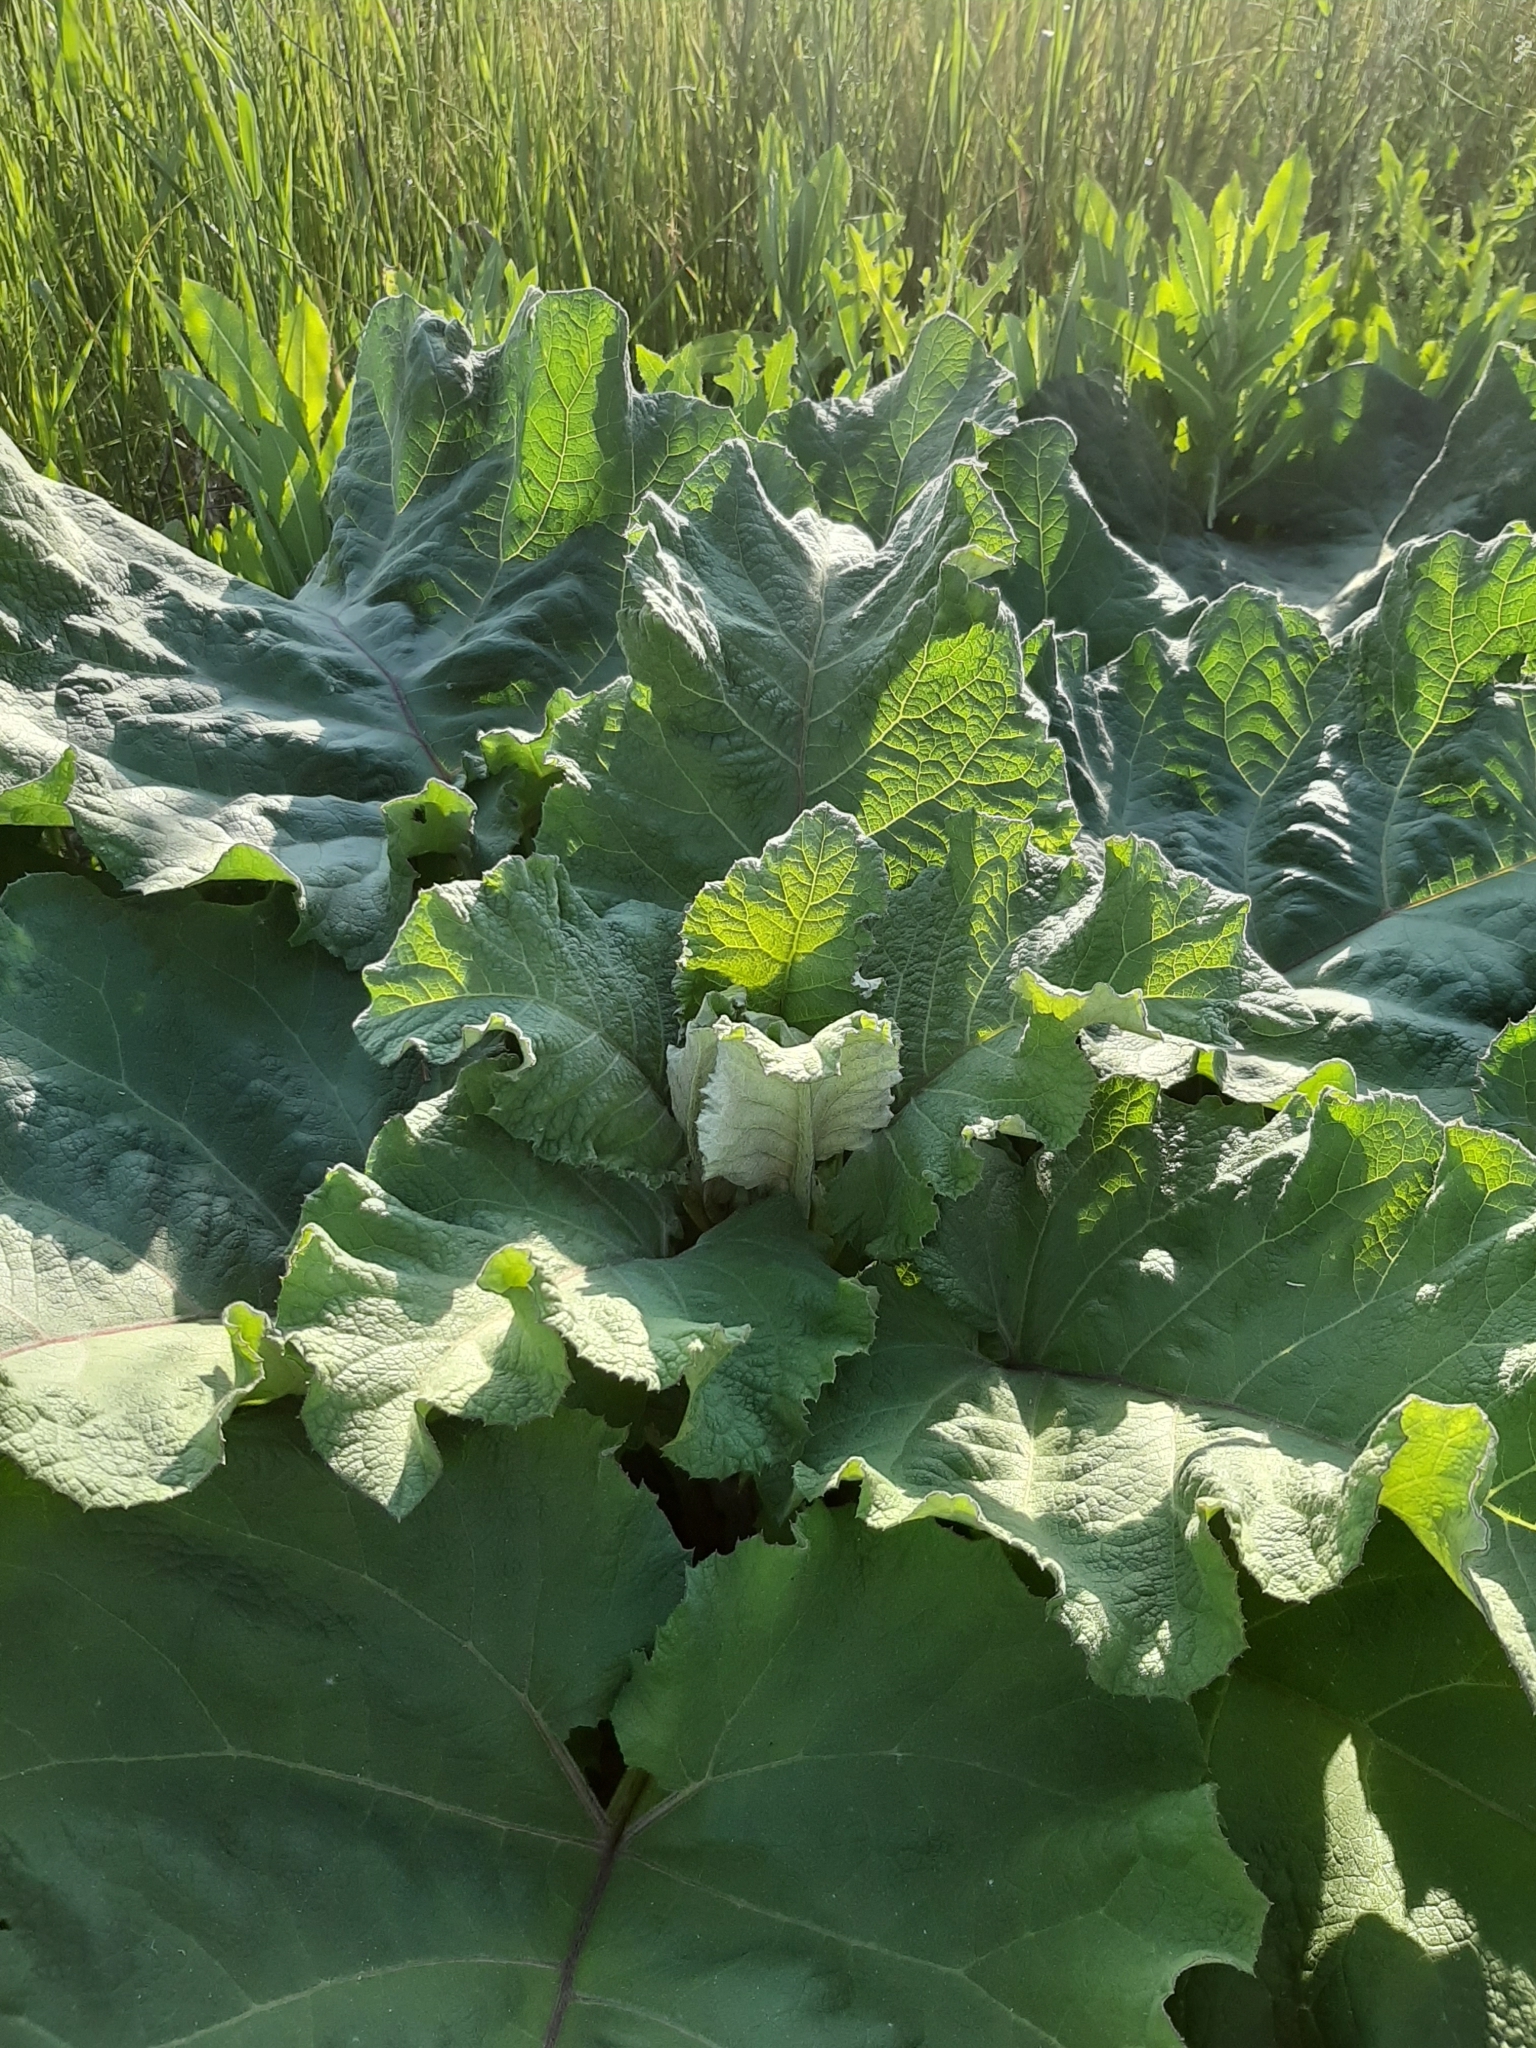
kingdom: Plantae
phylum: Tracheophyta
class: Magnoliopsida
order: Asterales
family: Asteraceae
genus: Arctium
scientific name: Arctium
